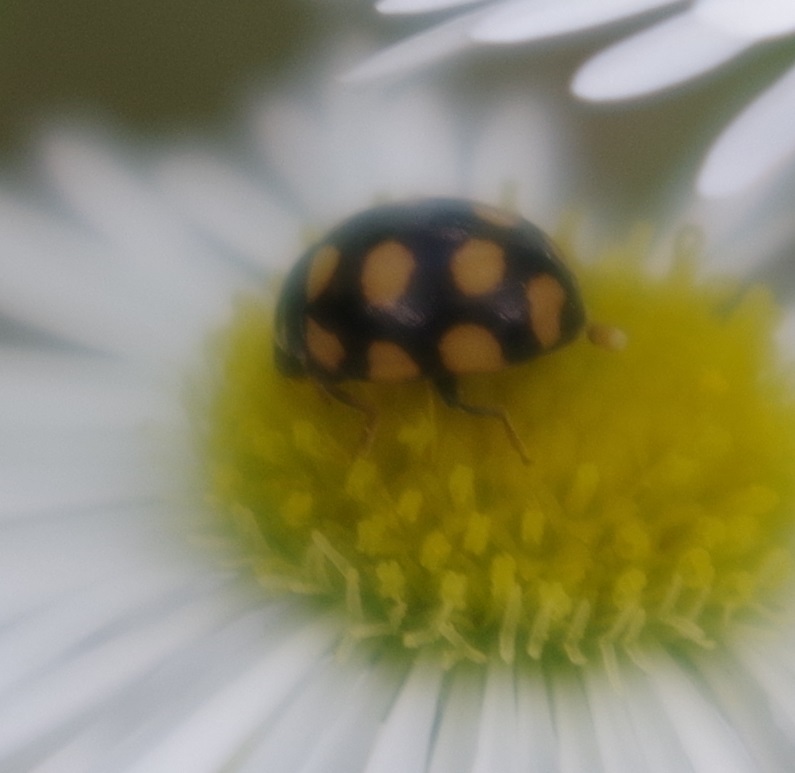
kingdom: Animalia
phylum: Arthropoda
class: Insecta
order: Coleoptera
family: Coccinellidae
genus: Coccinula
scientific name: Coccinula quatuordecimpustulata
